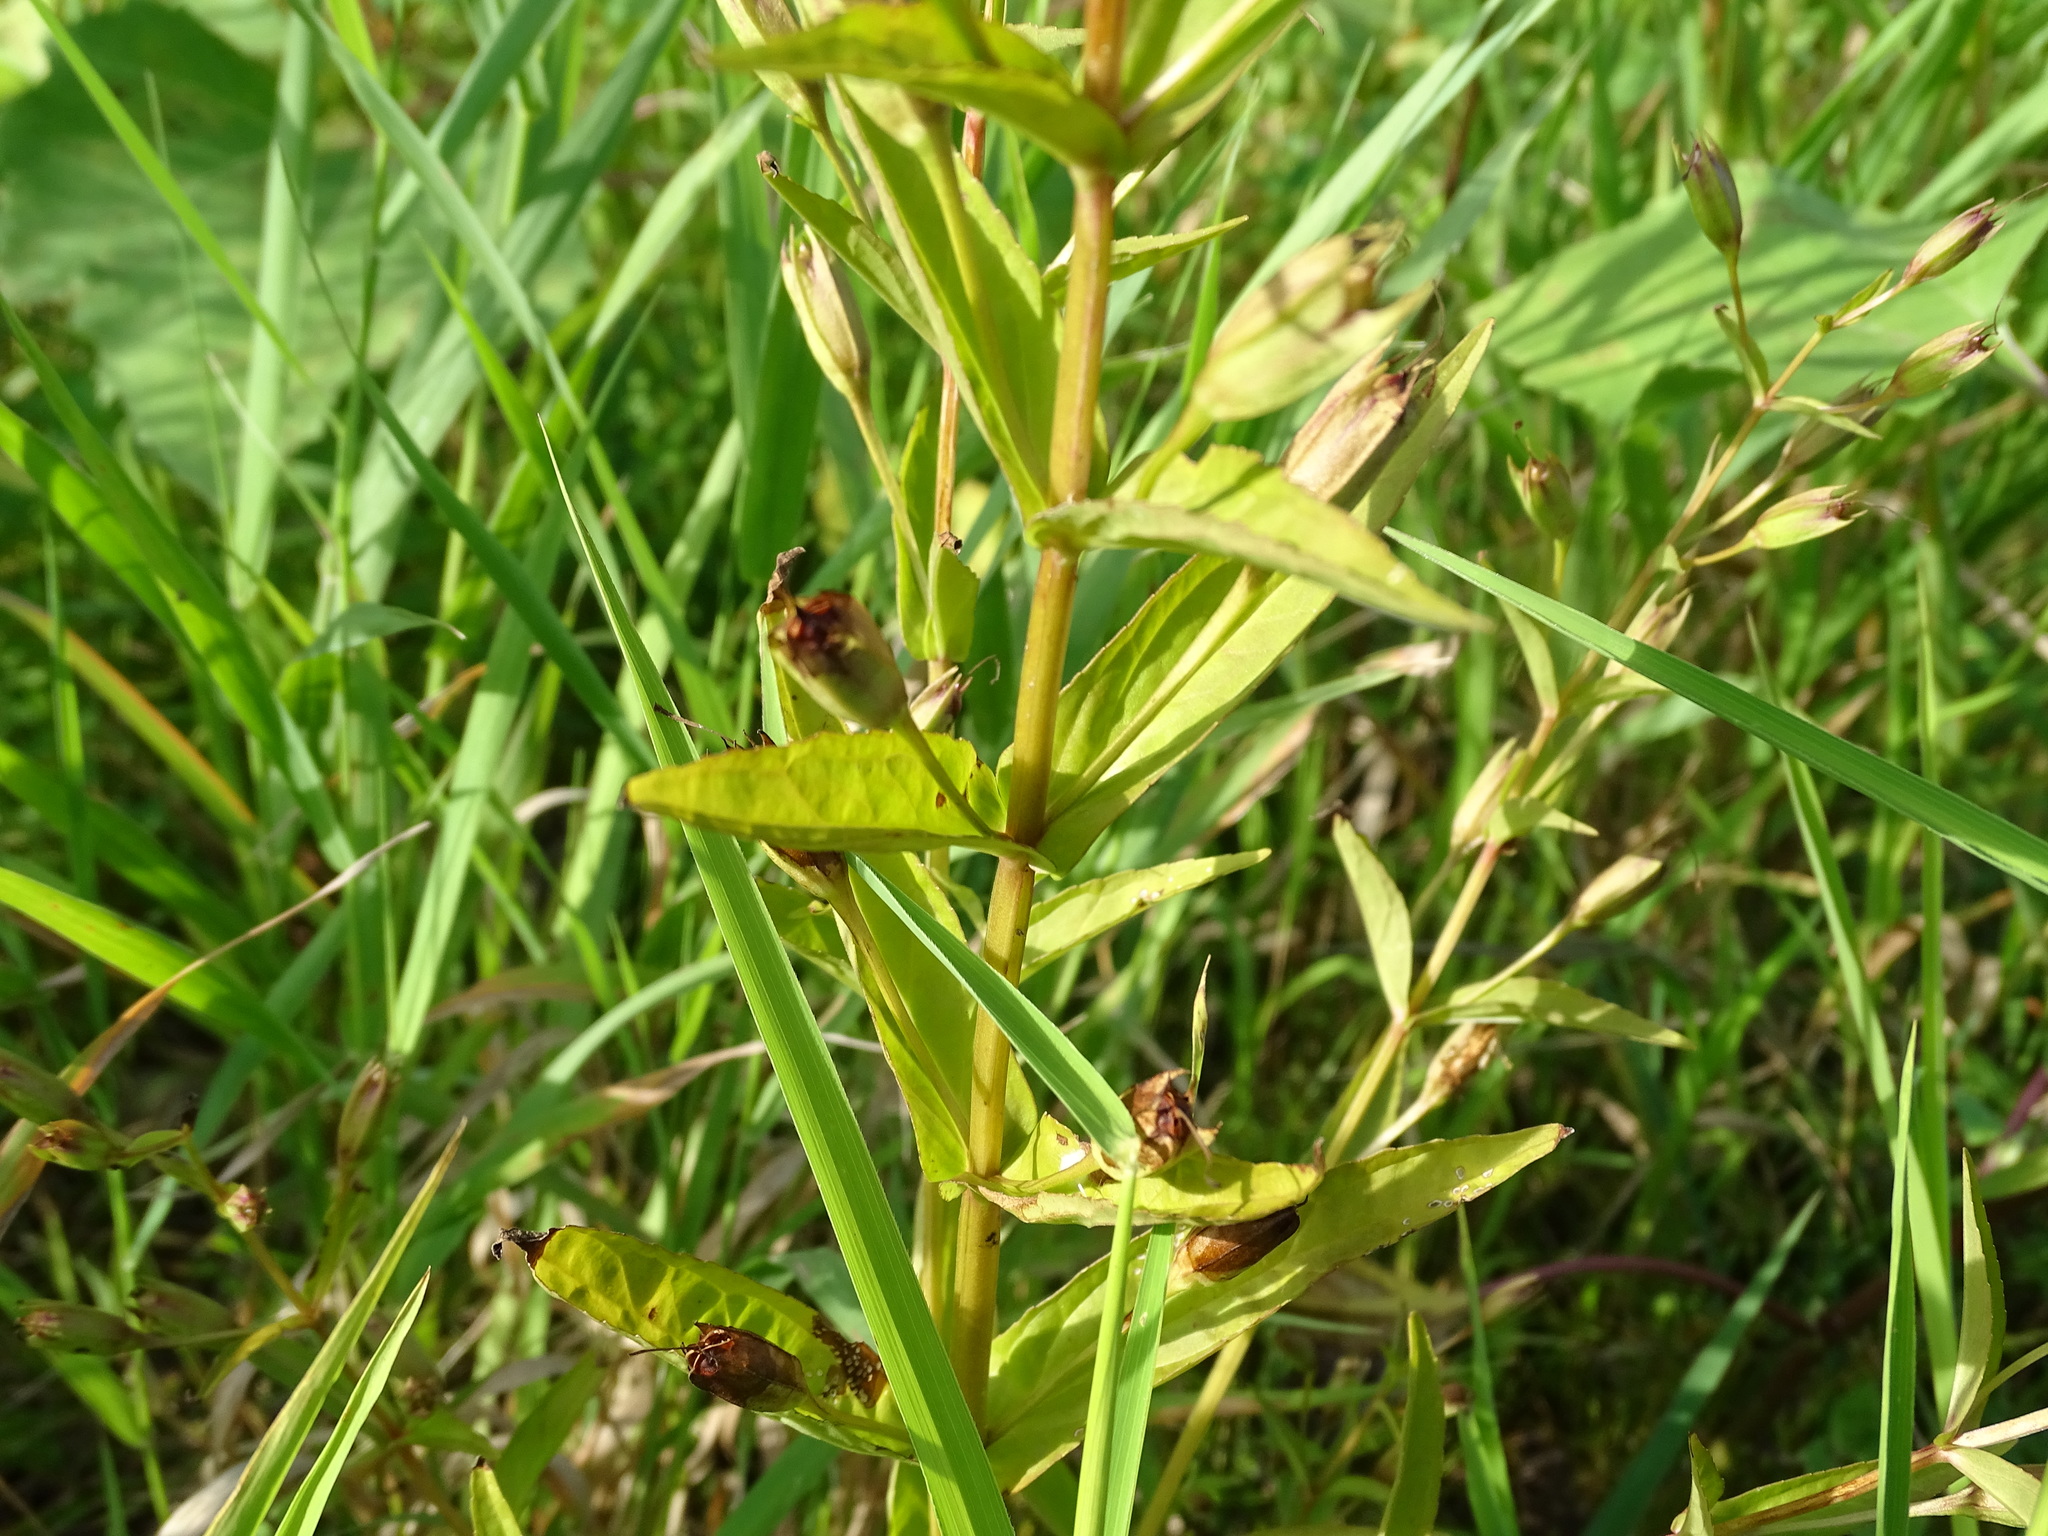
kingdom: Plantae
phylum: Tracheophyta
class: Magnoliopsida
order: Lamiales
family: Phrymaceae
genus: Mimulus
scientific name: Mimulus ringens
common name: Allegheny monkeyflower
